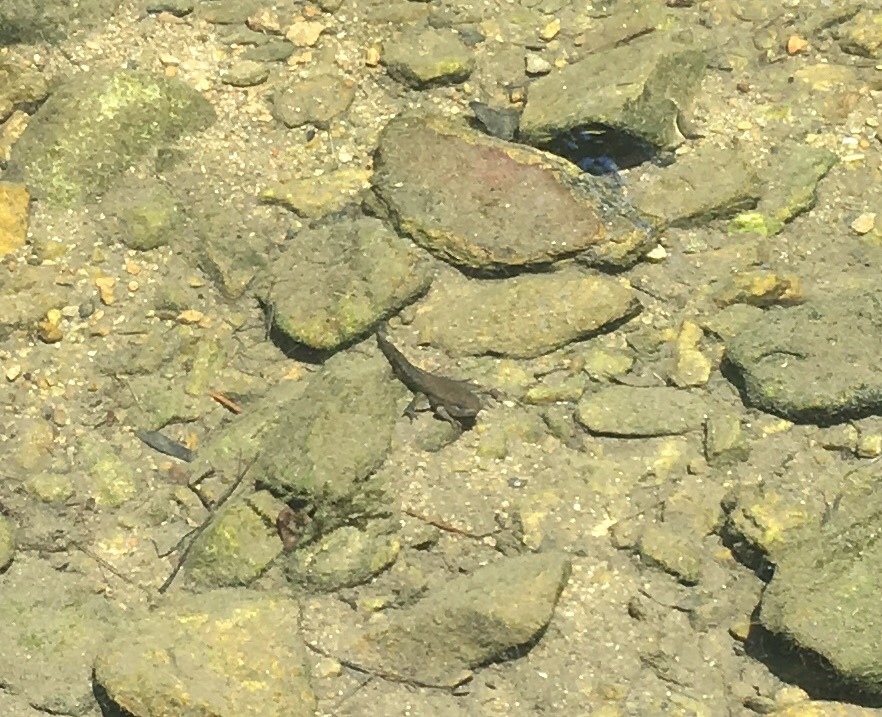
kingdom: Animalia
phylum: Chordata
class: Amphibia
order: Anura
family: Ranidae
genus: Lithobates
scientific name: Lithobates
